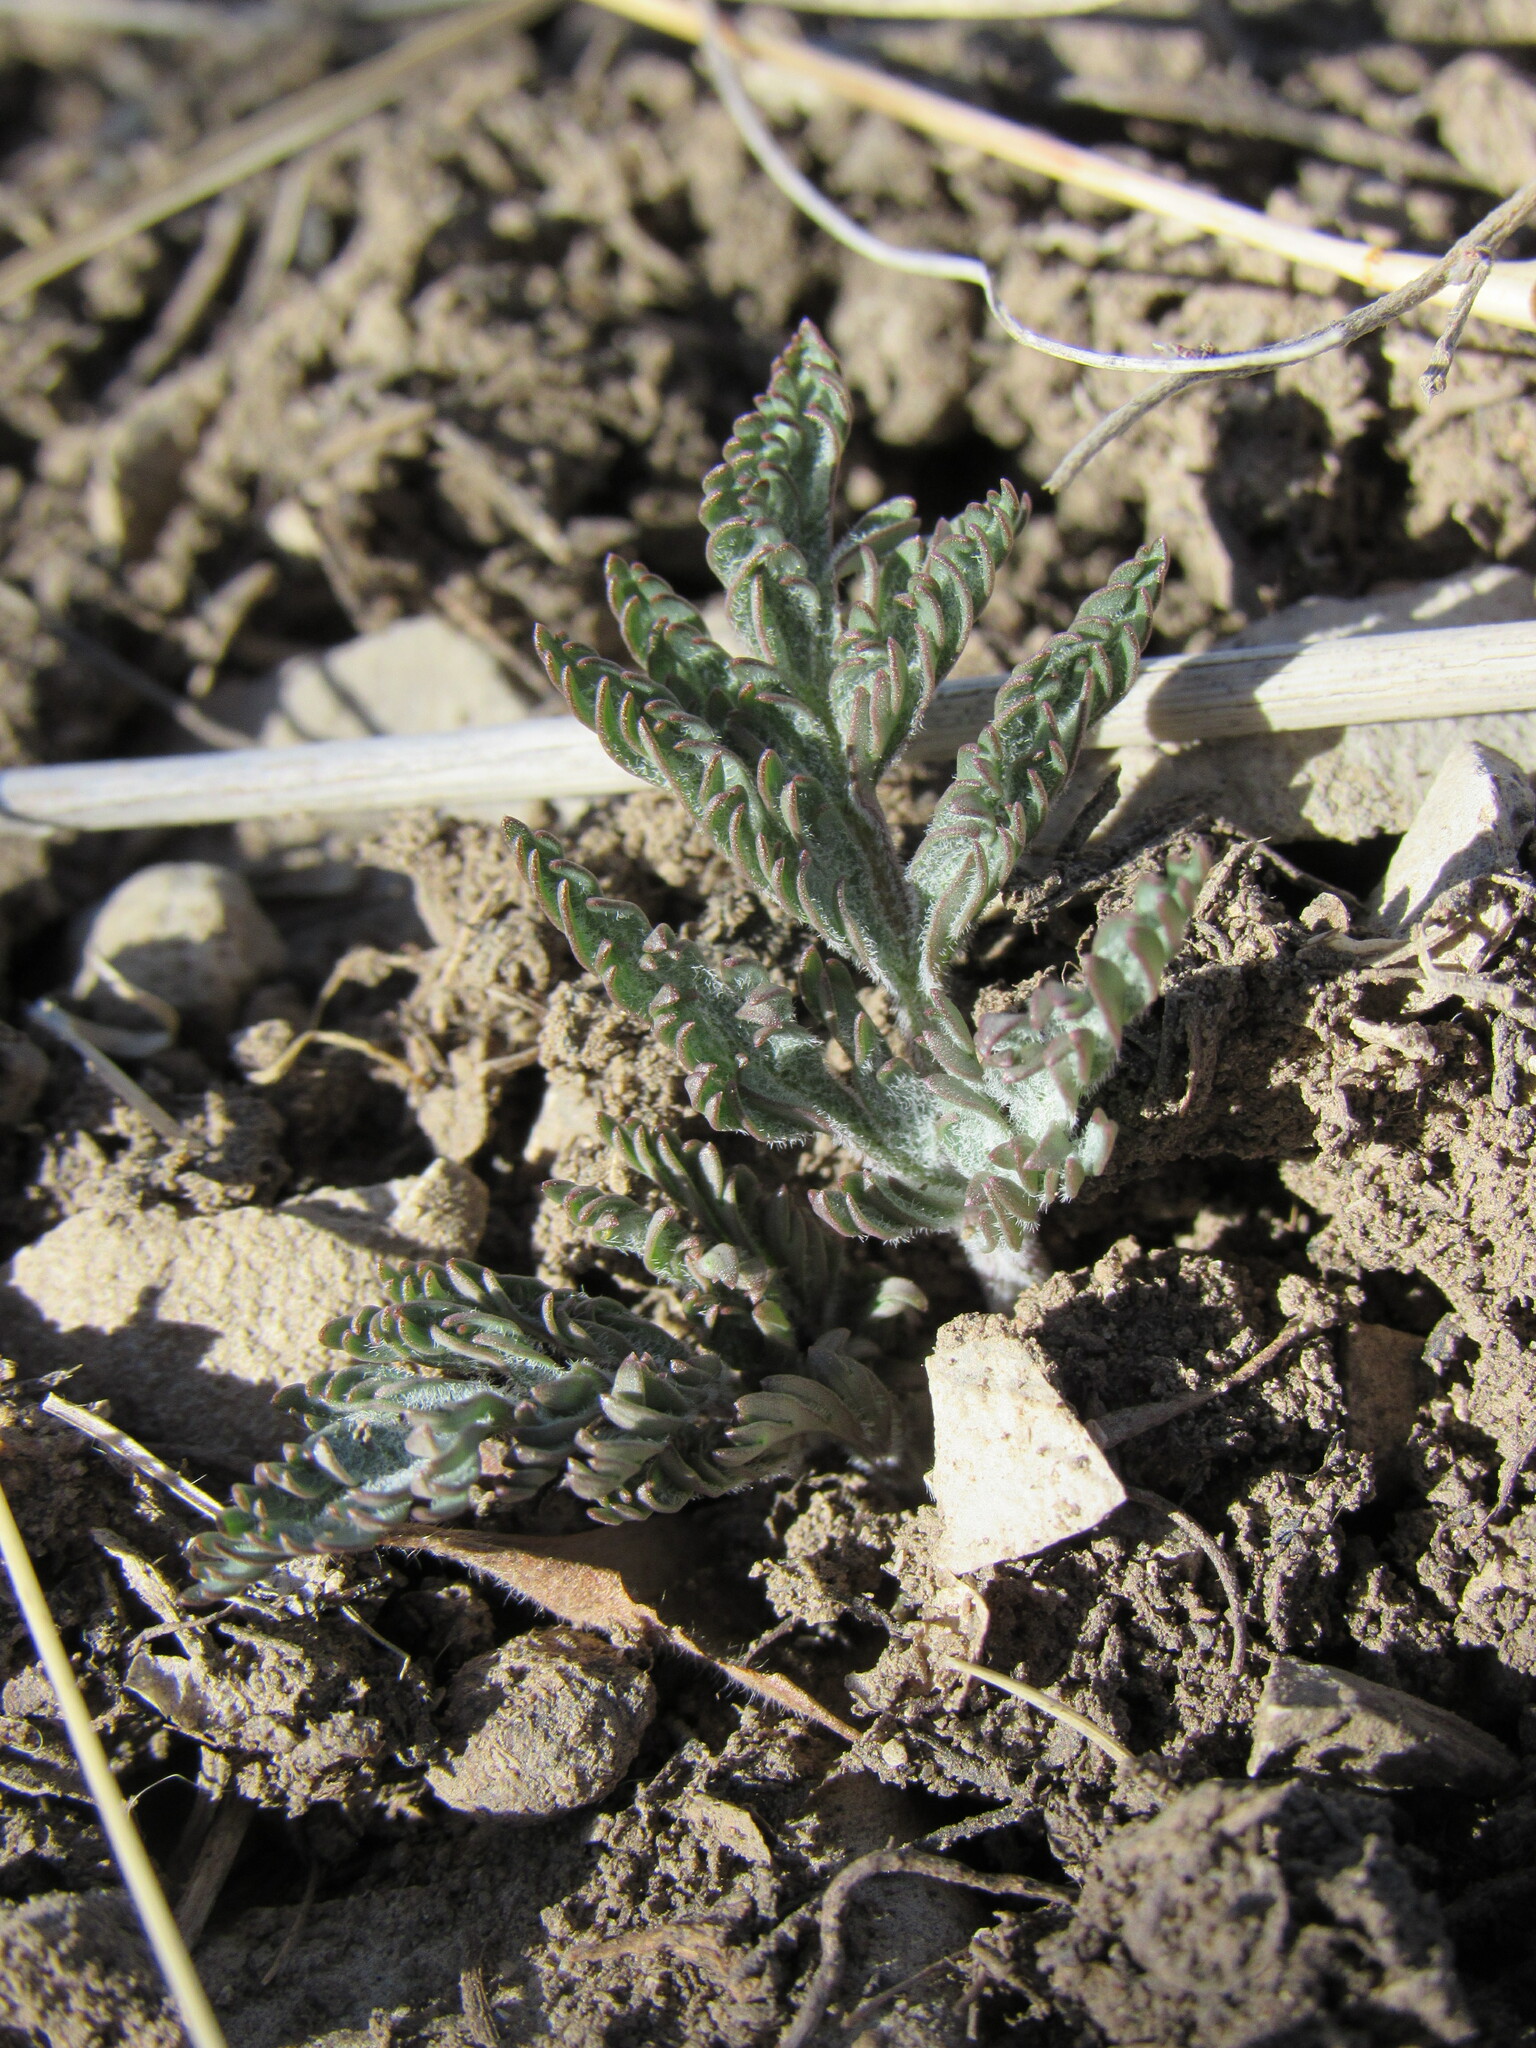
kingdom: Plantae
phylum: Tracheophyta
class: Magnoliopsida
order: Apiales
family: Apiaceae
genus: Lomatium
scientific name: Lomatium orientale
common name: Eastern cous
